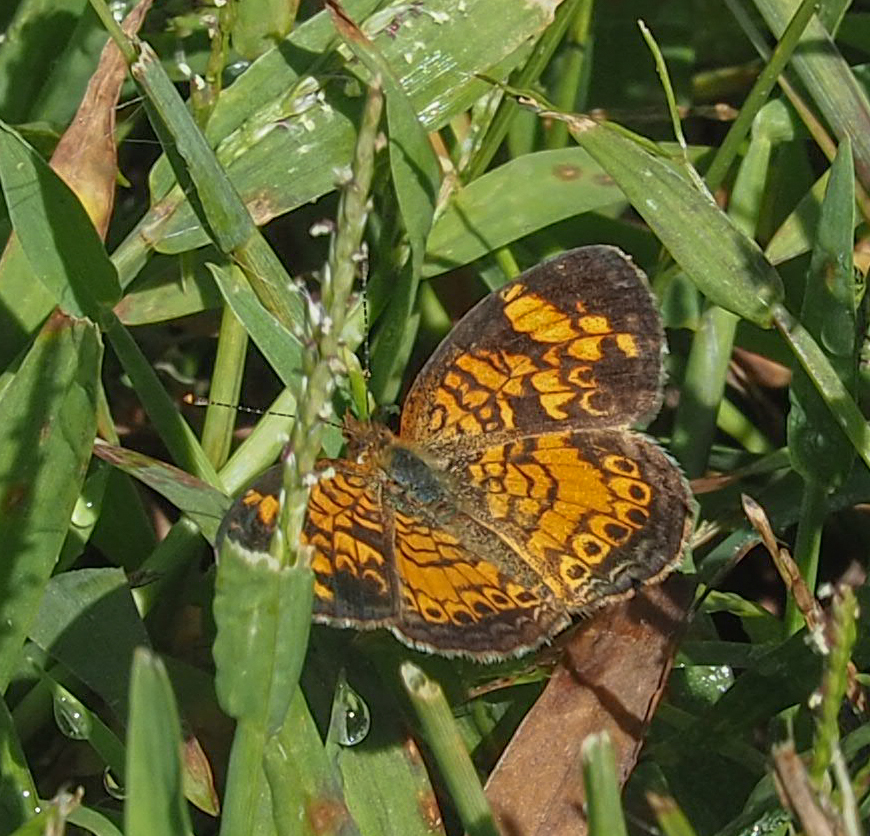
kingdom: Animalia
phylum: Arthropoda
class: Insecta
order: Lepidoptera
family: Nymphalidae
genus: Phyciodes
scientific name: Phyciodes tharos
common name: Pearl crescent
